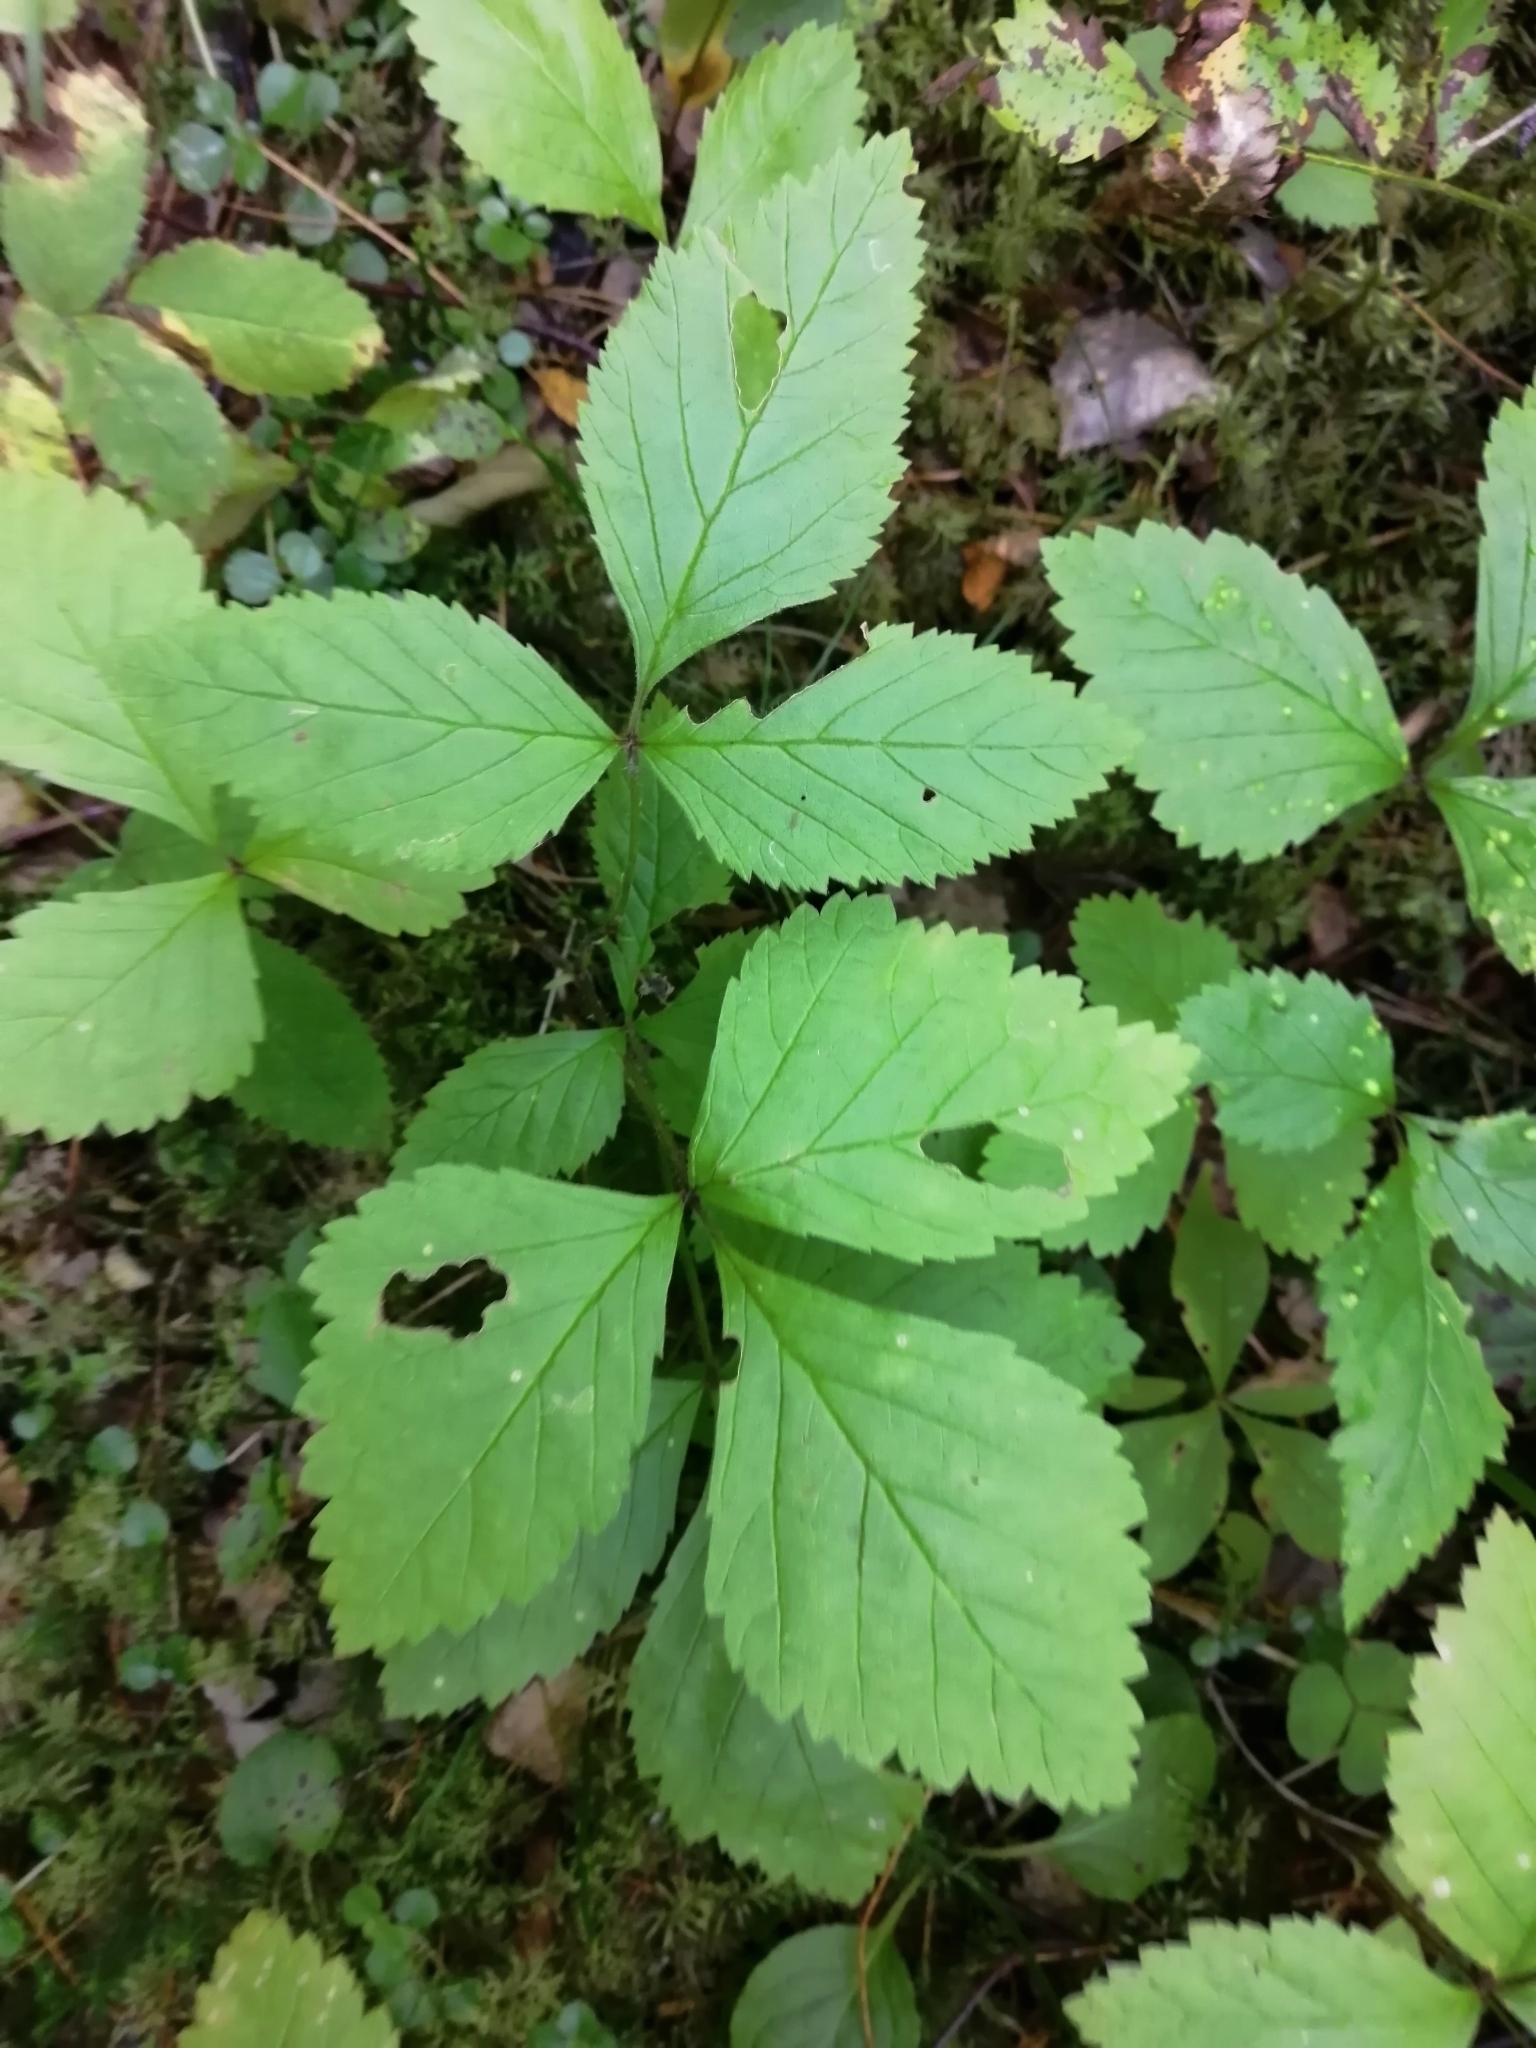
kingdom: Plantae
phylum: Tracheophyta
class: Magnoliopsida
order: Rosales
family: Rosaceae
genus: Rubus
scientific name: Rubus saxatilis
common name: Stone bramble
